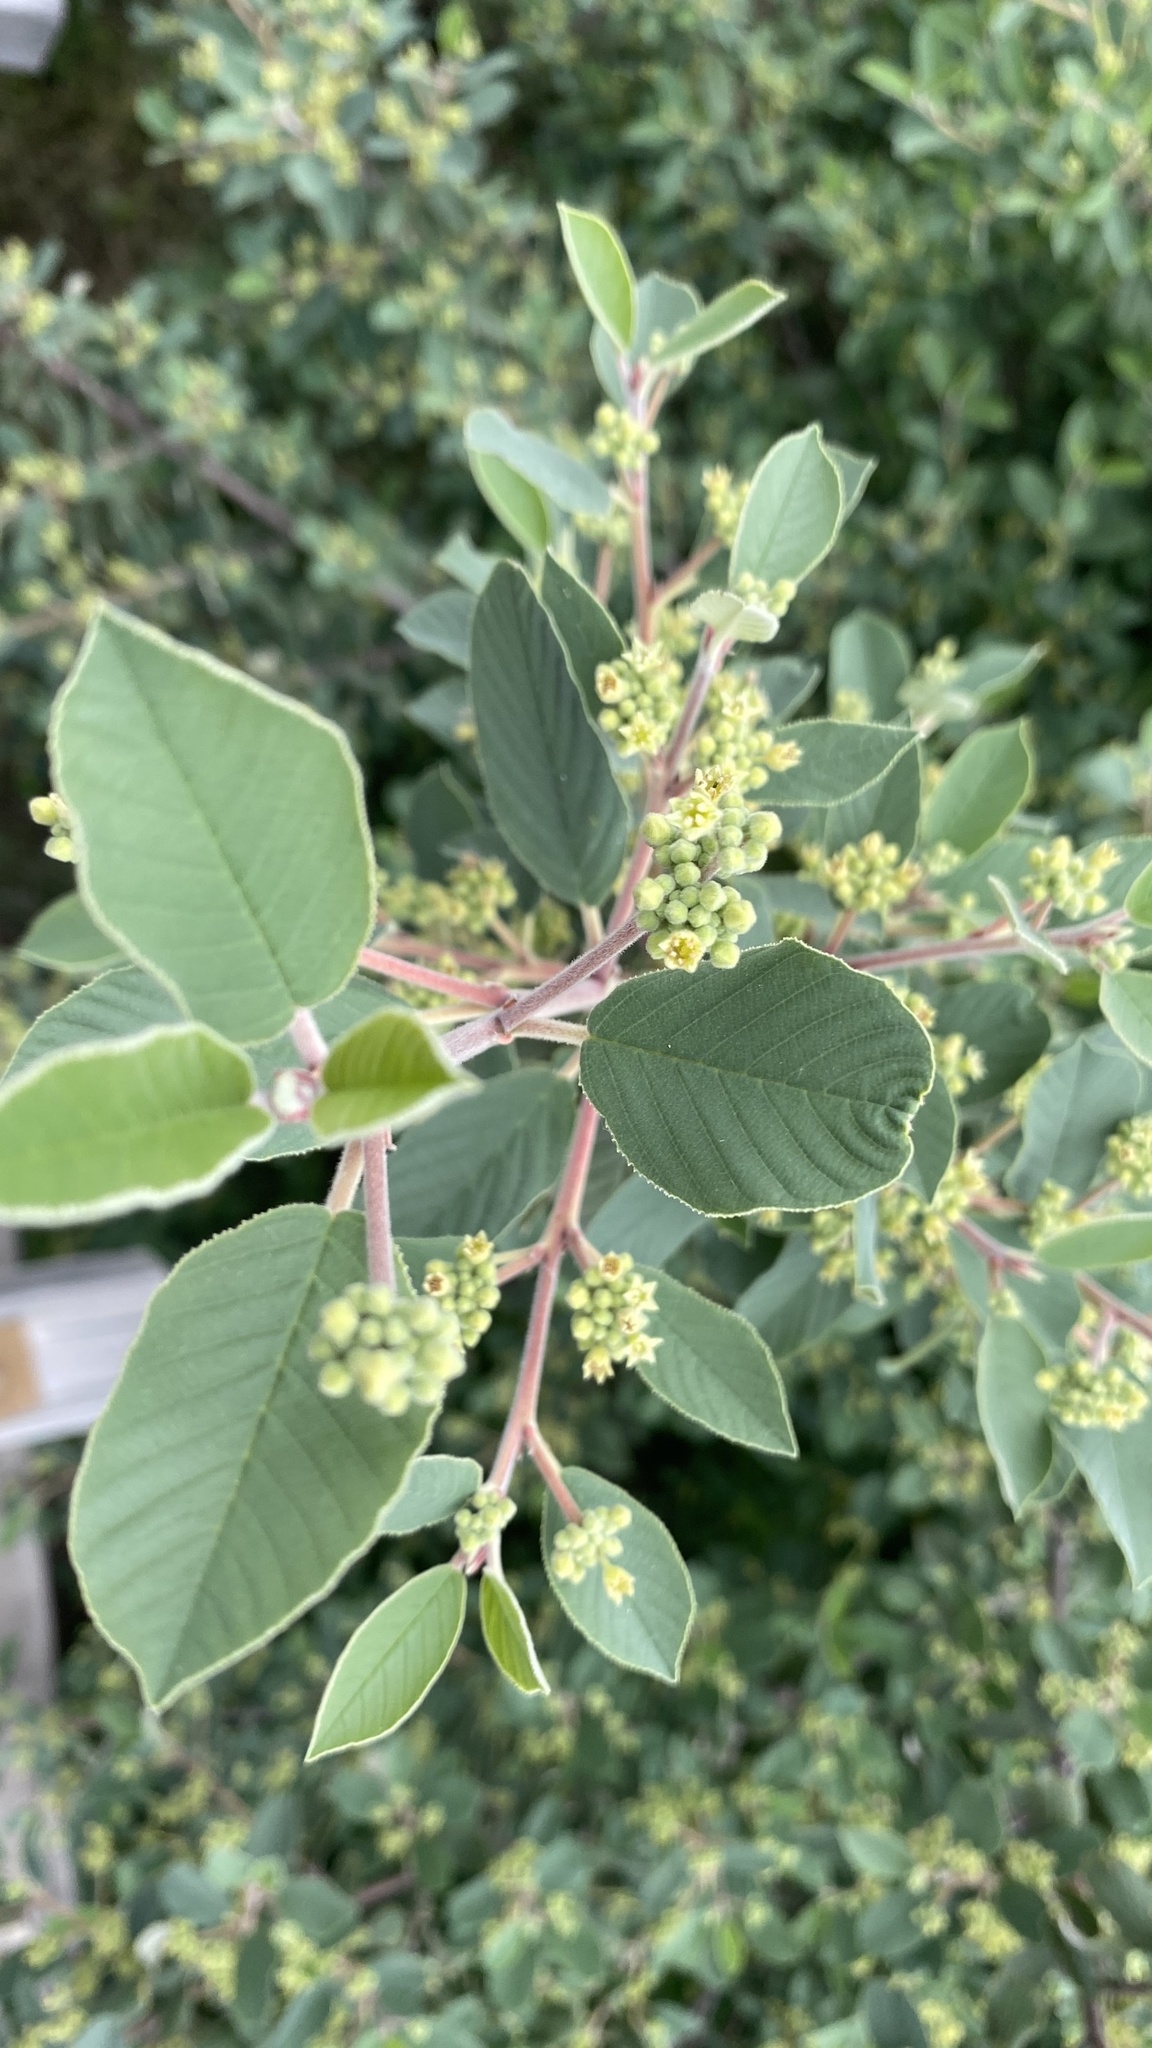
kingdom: Plantae
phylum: Tracheophyta
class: Magnoliopsida
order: Rosales
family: Rhamnaceae
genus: Frangula
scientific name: Frangula californica
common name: California buckthorn
